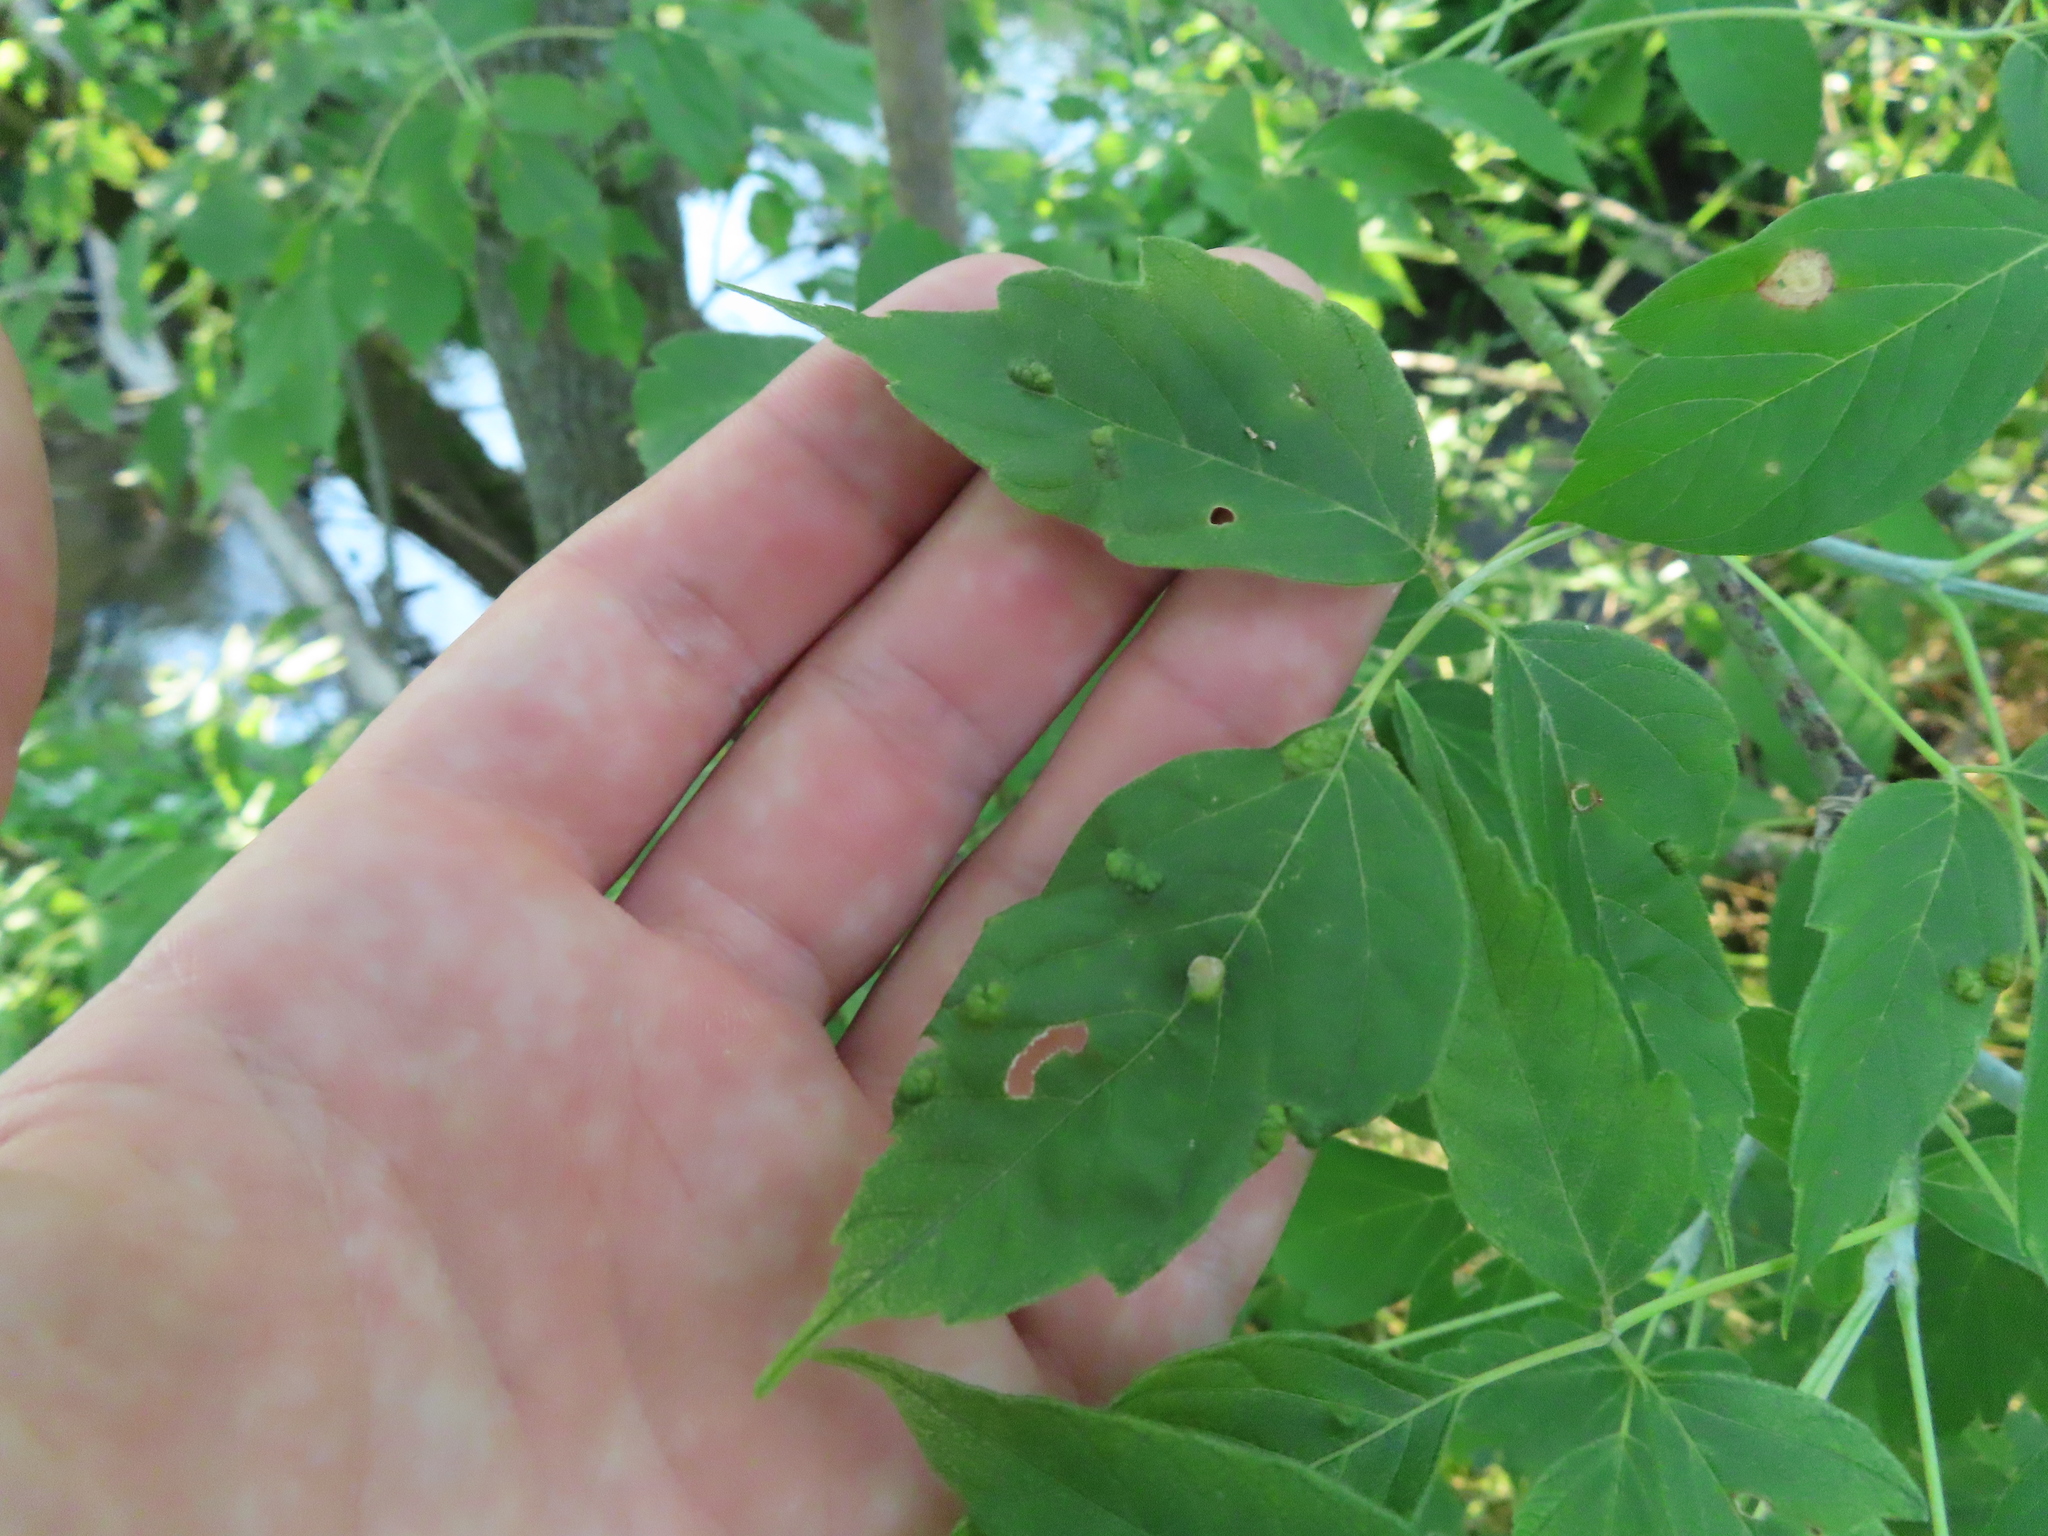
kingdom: Plantae
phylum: Tracheophyta
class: Magnoliopsida
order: Sapindales
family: Sapindaceae
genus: Acer
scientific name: Acer negundo
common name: Ashleaf maple
